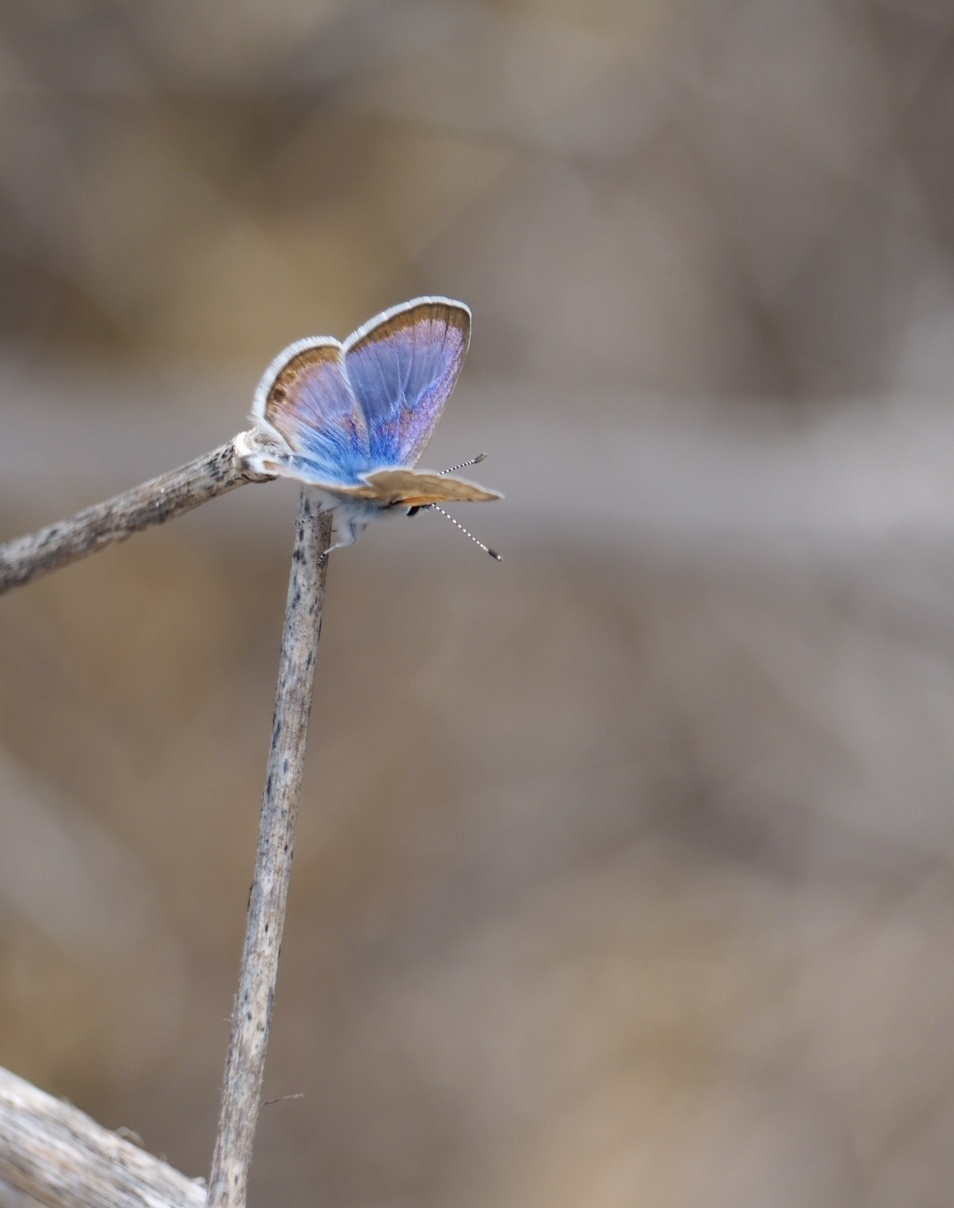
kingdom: Animalia
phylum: Arthropoda
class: Insecta
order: Lepidoptera
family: Lycaenidae
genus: Azanus
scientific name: Azanus ubaldus
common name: Desert babul blue
